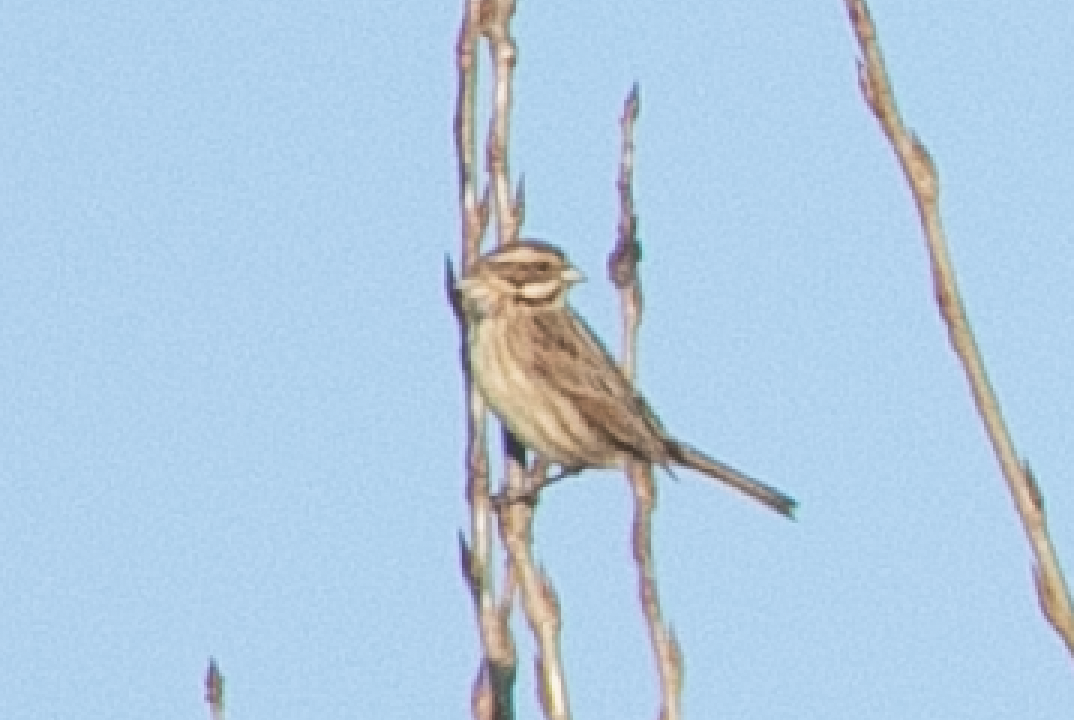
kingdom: Animalia
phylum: Chordata
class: Aves
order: Passeriformes
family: Emberizidae
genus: Emberiza
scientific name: Emberiza schoeniclus
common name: Reed bunting
